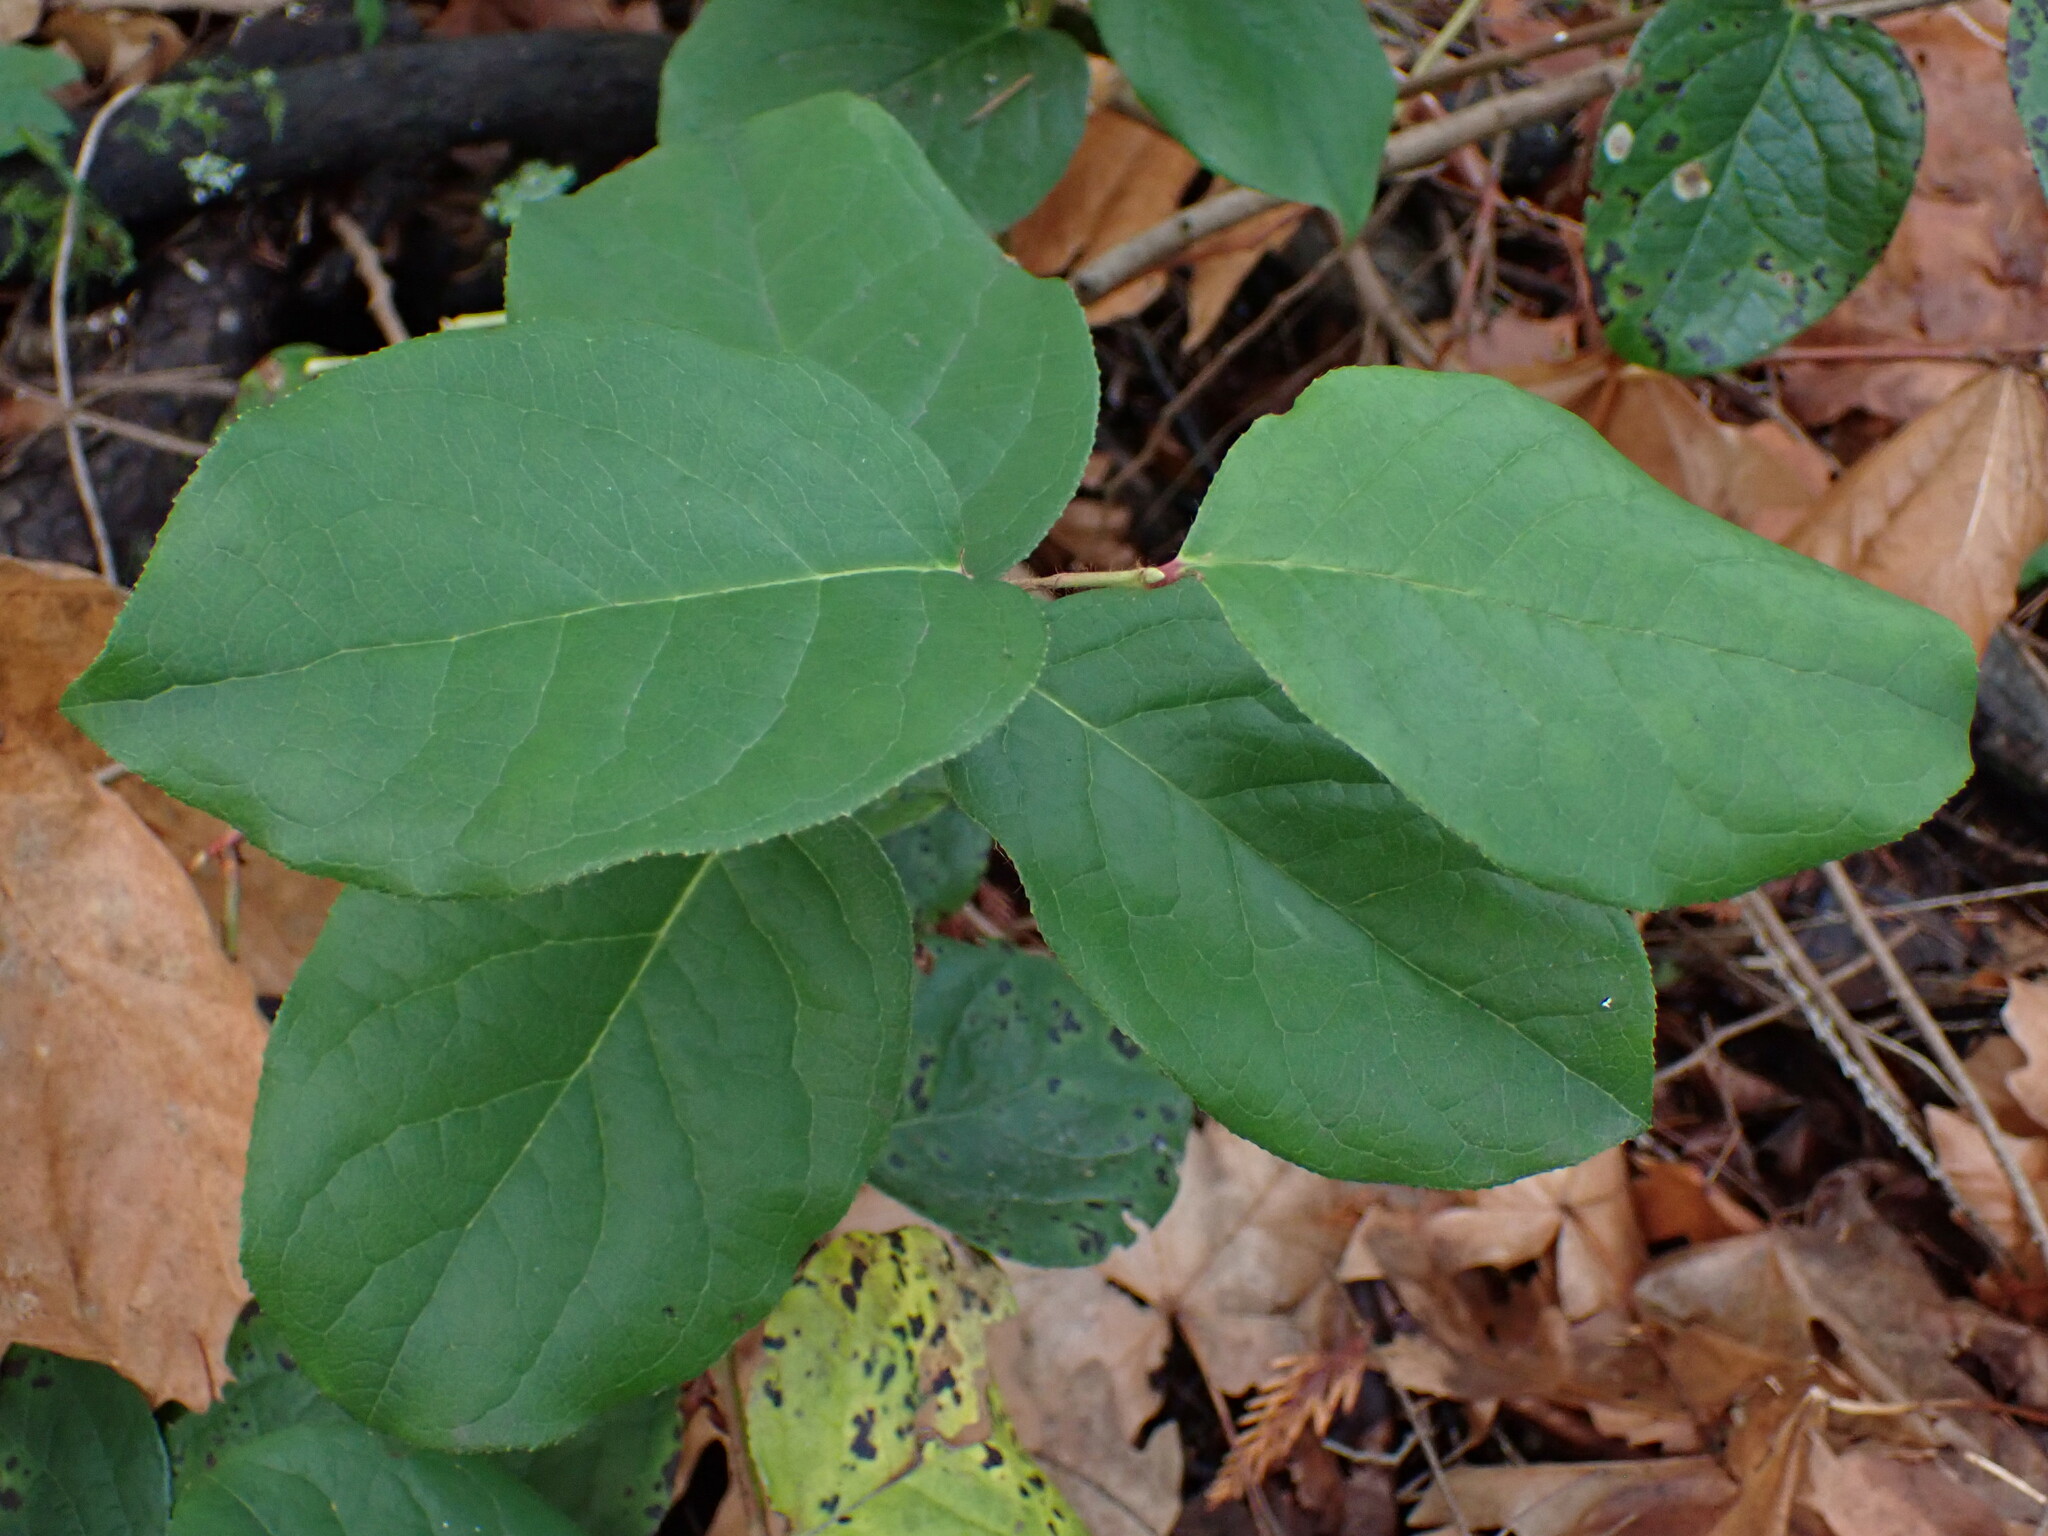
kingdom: Plantae
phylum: Tracheophyta
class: Magnoliopsida
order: Ericales
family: Ericaceae
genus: Gaultheria
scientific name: Gaultheria shallon
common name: Shallon
